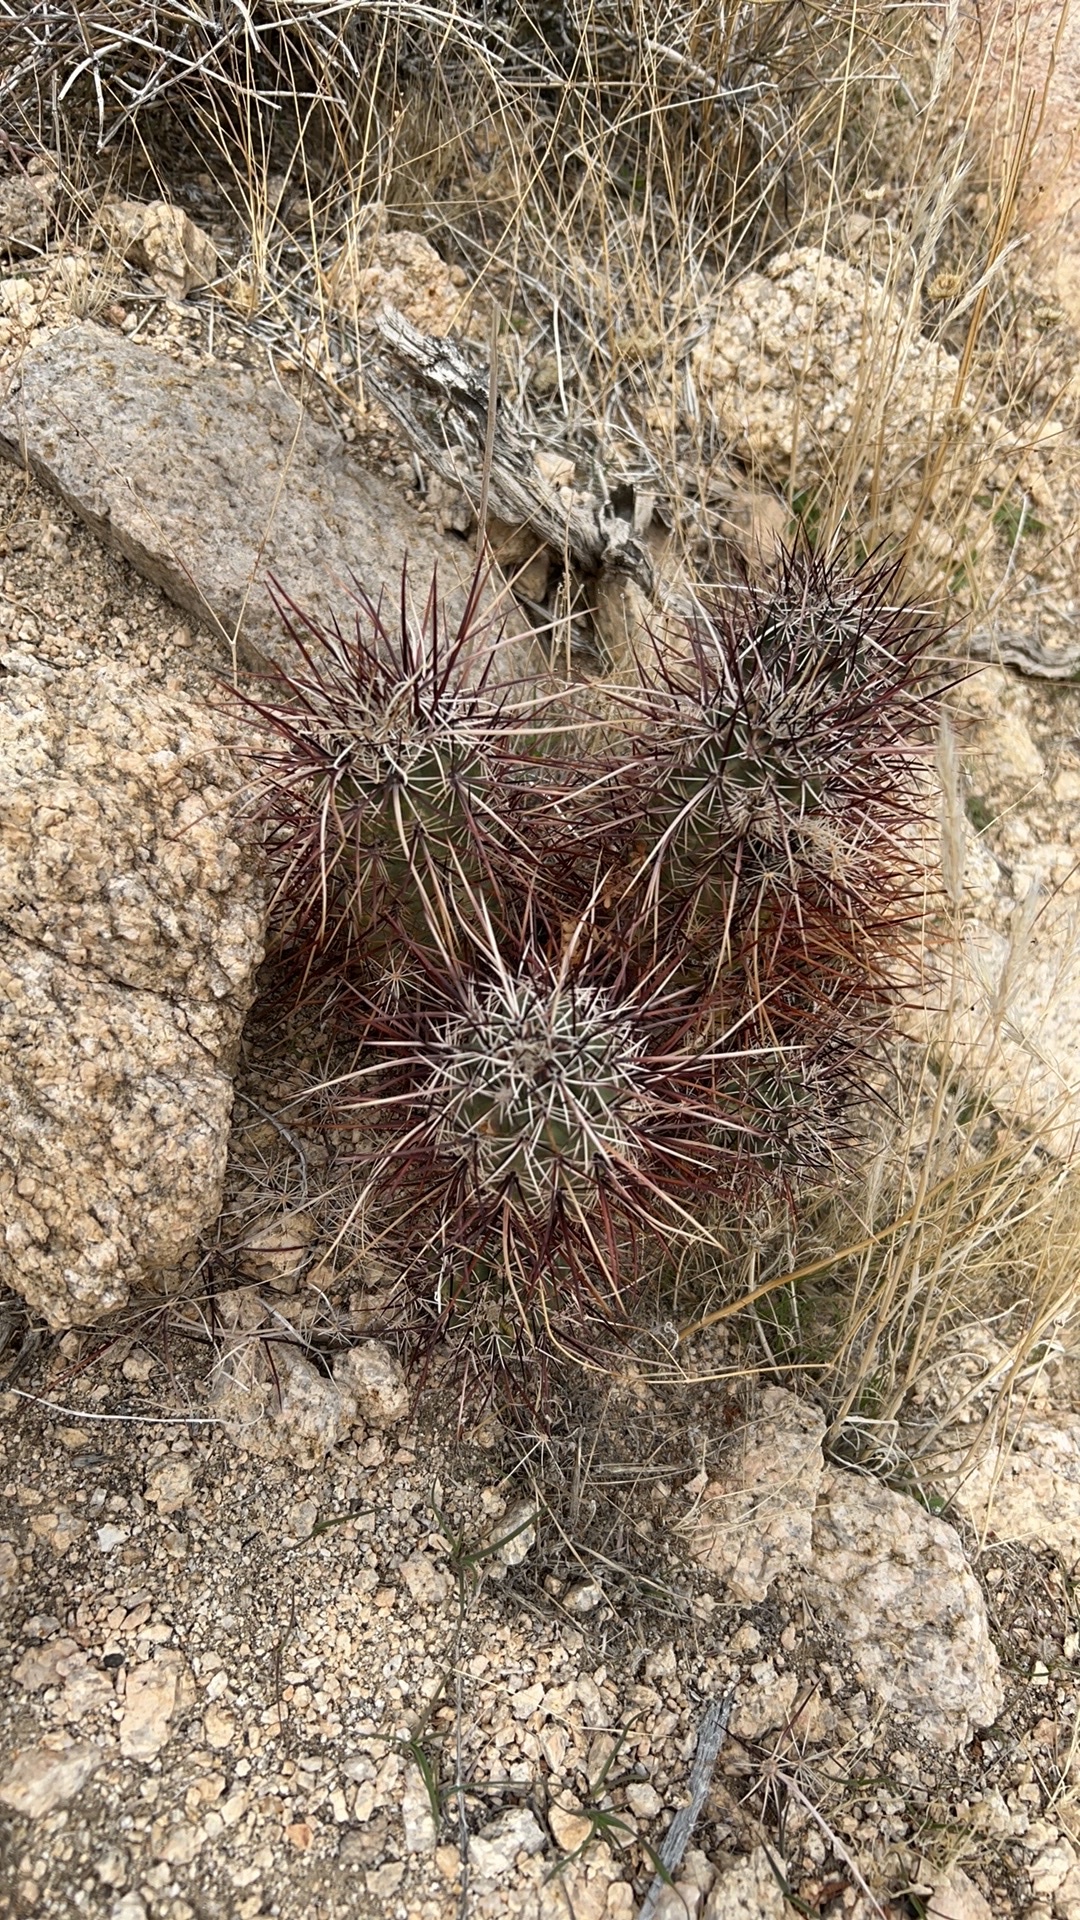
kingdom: Plantae
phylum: Tracheophyta
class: Magnoliopsida
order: Caryophyllales
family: Cactaceae
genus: Echinocereus
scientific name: Echinocereus engelmannii
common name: Engelmann's hedgehog cactus
